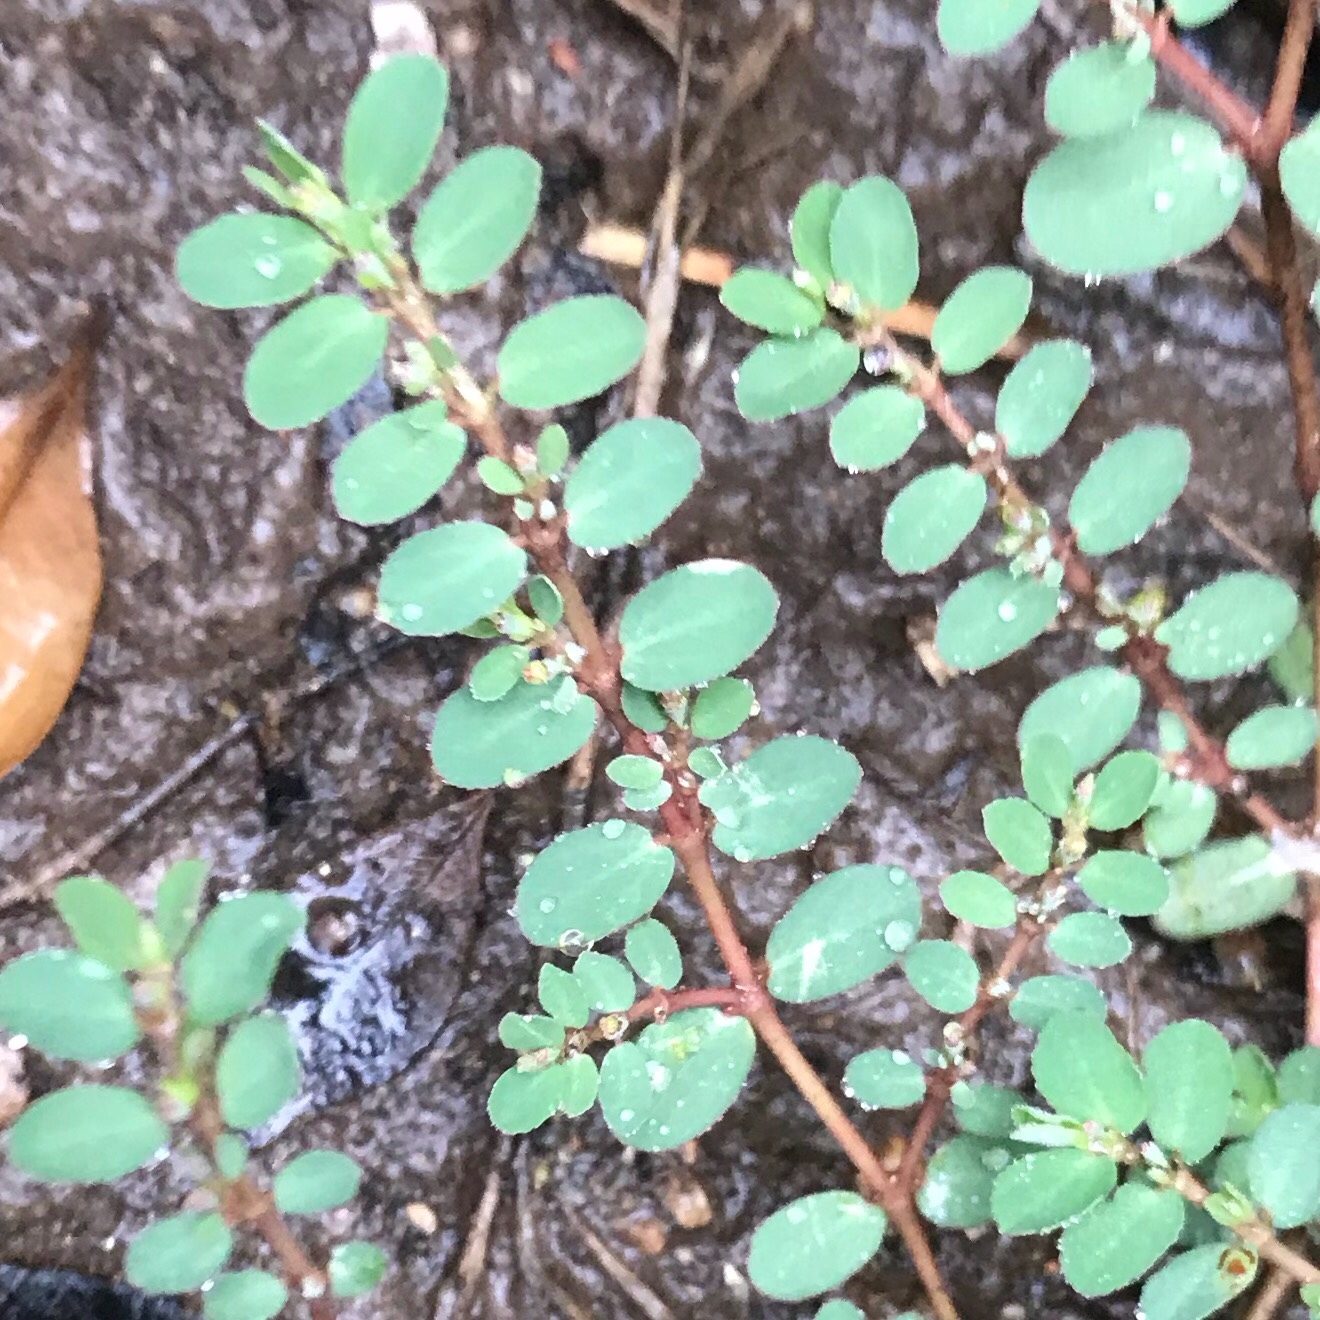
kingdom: Plantae
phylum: Tracheophyta
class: Magnoliopsida
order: Malpighiales
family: Euphorbiaceae
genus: Euphorbia
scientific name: Euphorbia prostrata
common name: Prostrate sandmat
